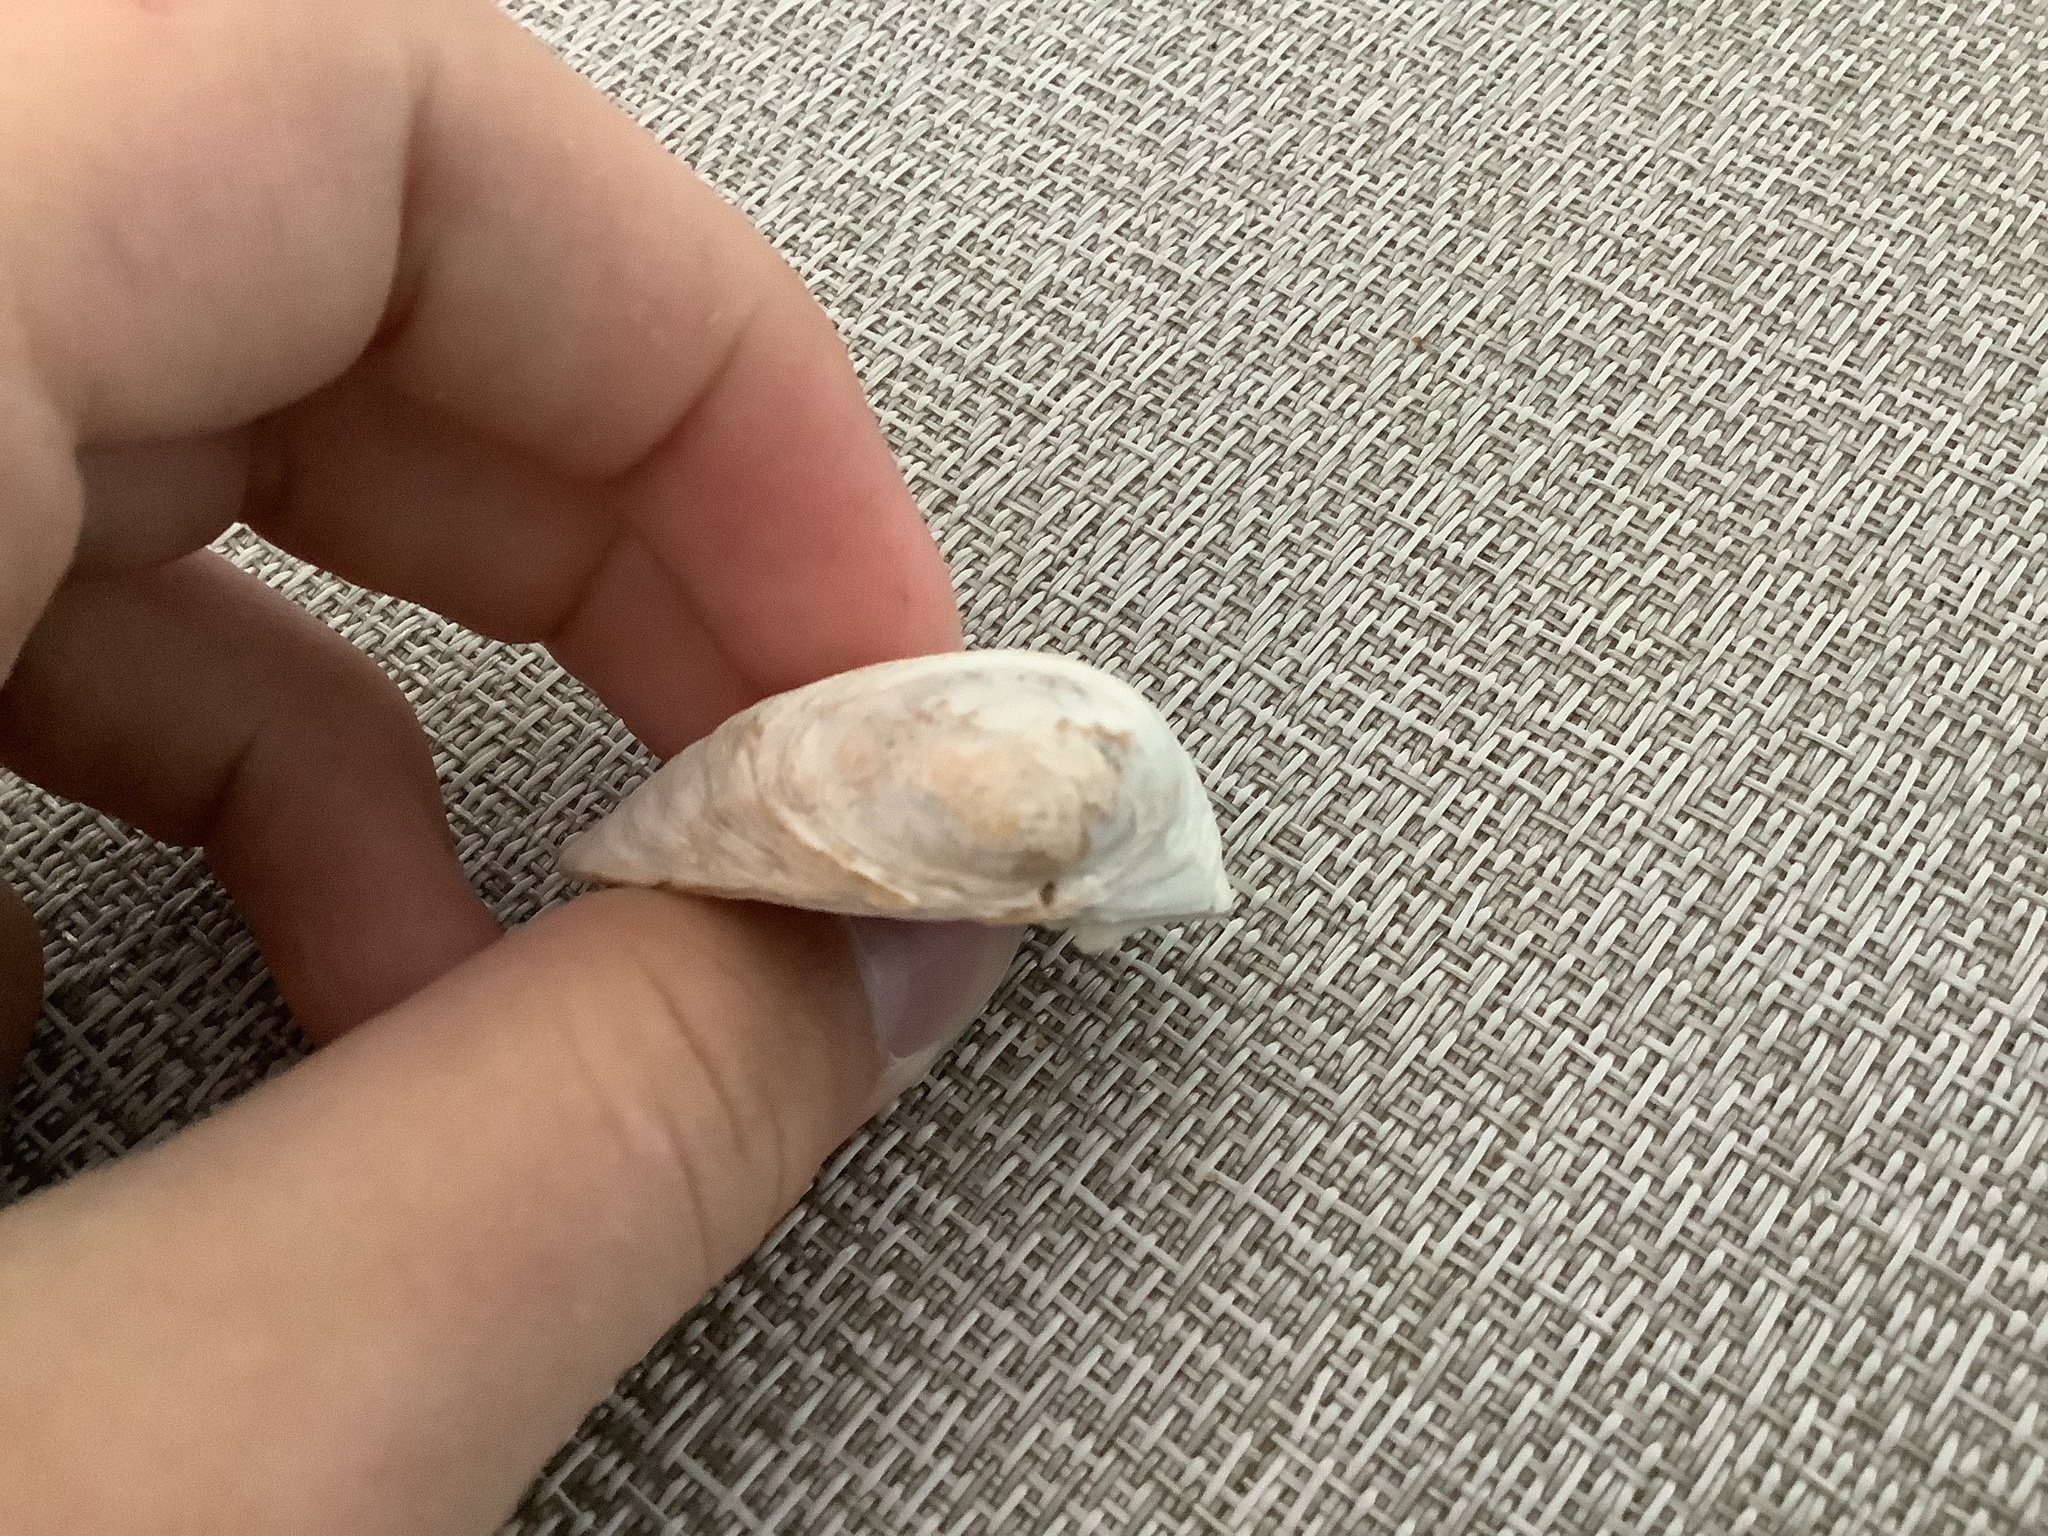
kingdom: Animalia
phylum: Mollusca
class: Bivalvia
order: Venerida
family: Mactridae
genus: Rangia
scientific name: Rangia cuneata
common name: Atlantic rangia
